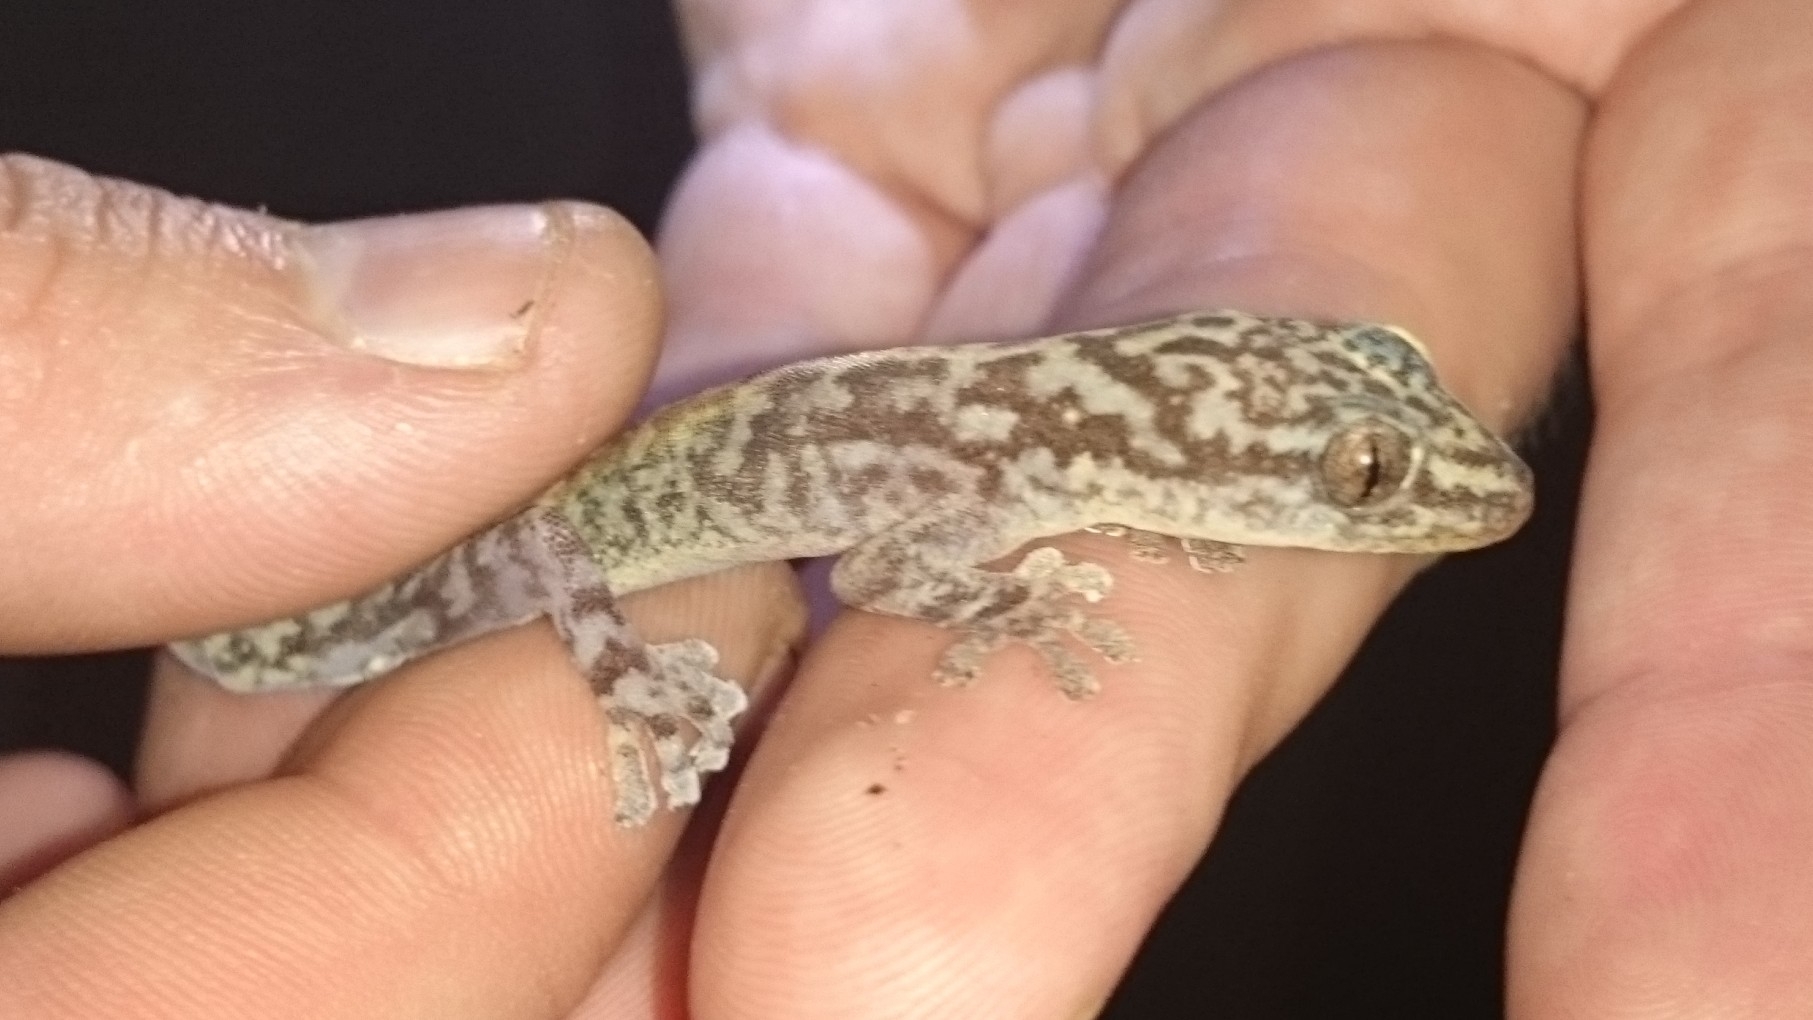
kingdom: Animalia
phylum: Chordata
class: Squamata
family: Gekkonidae
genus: Afroedura
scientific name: Afroedura pondolia
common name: Pondo flat gecko
